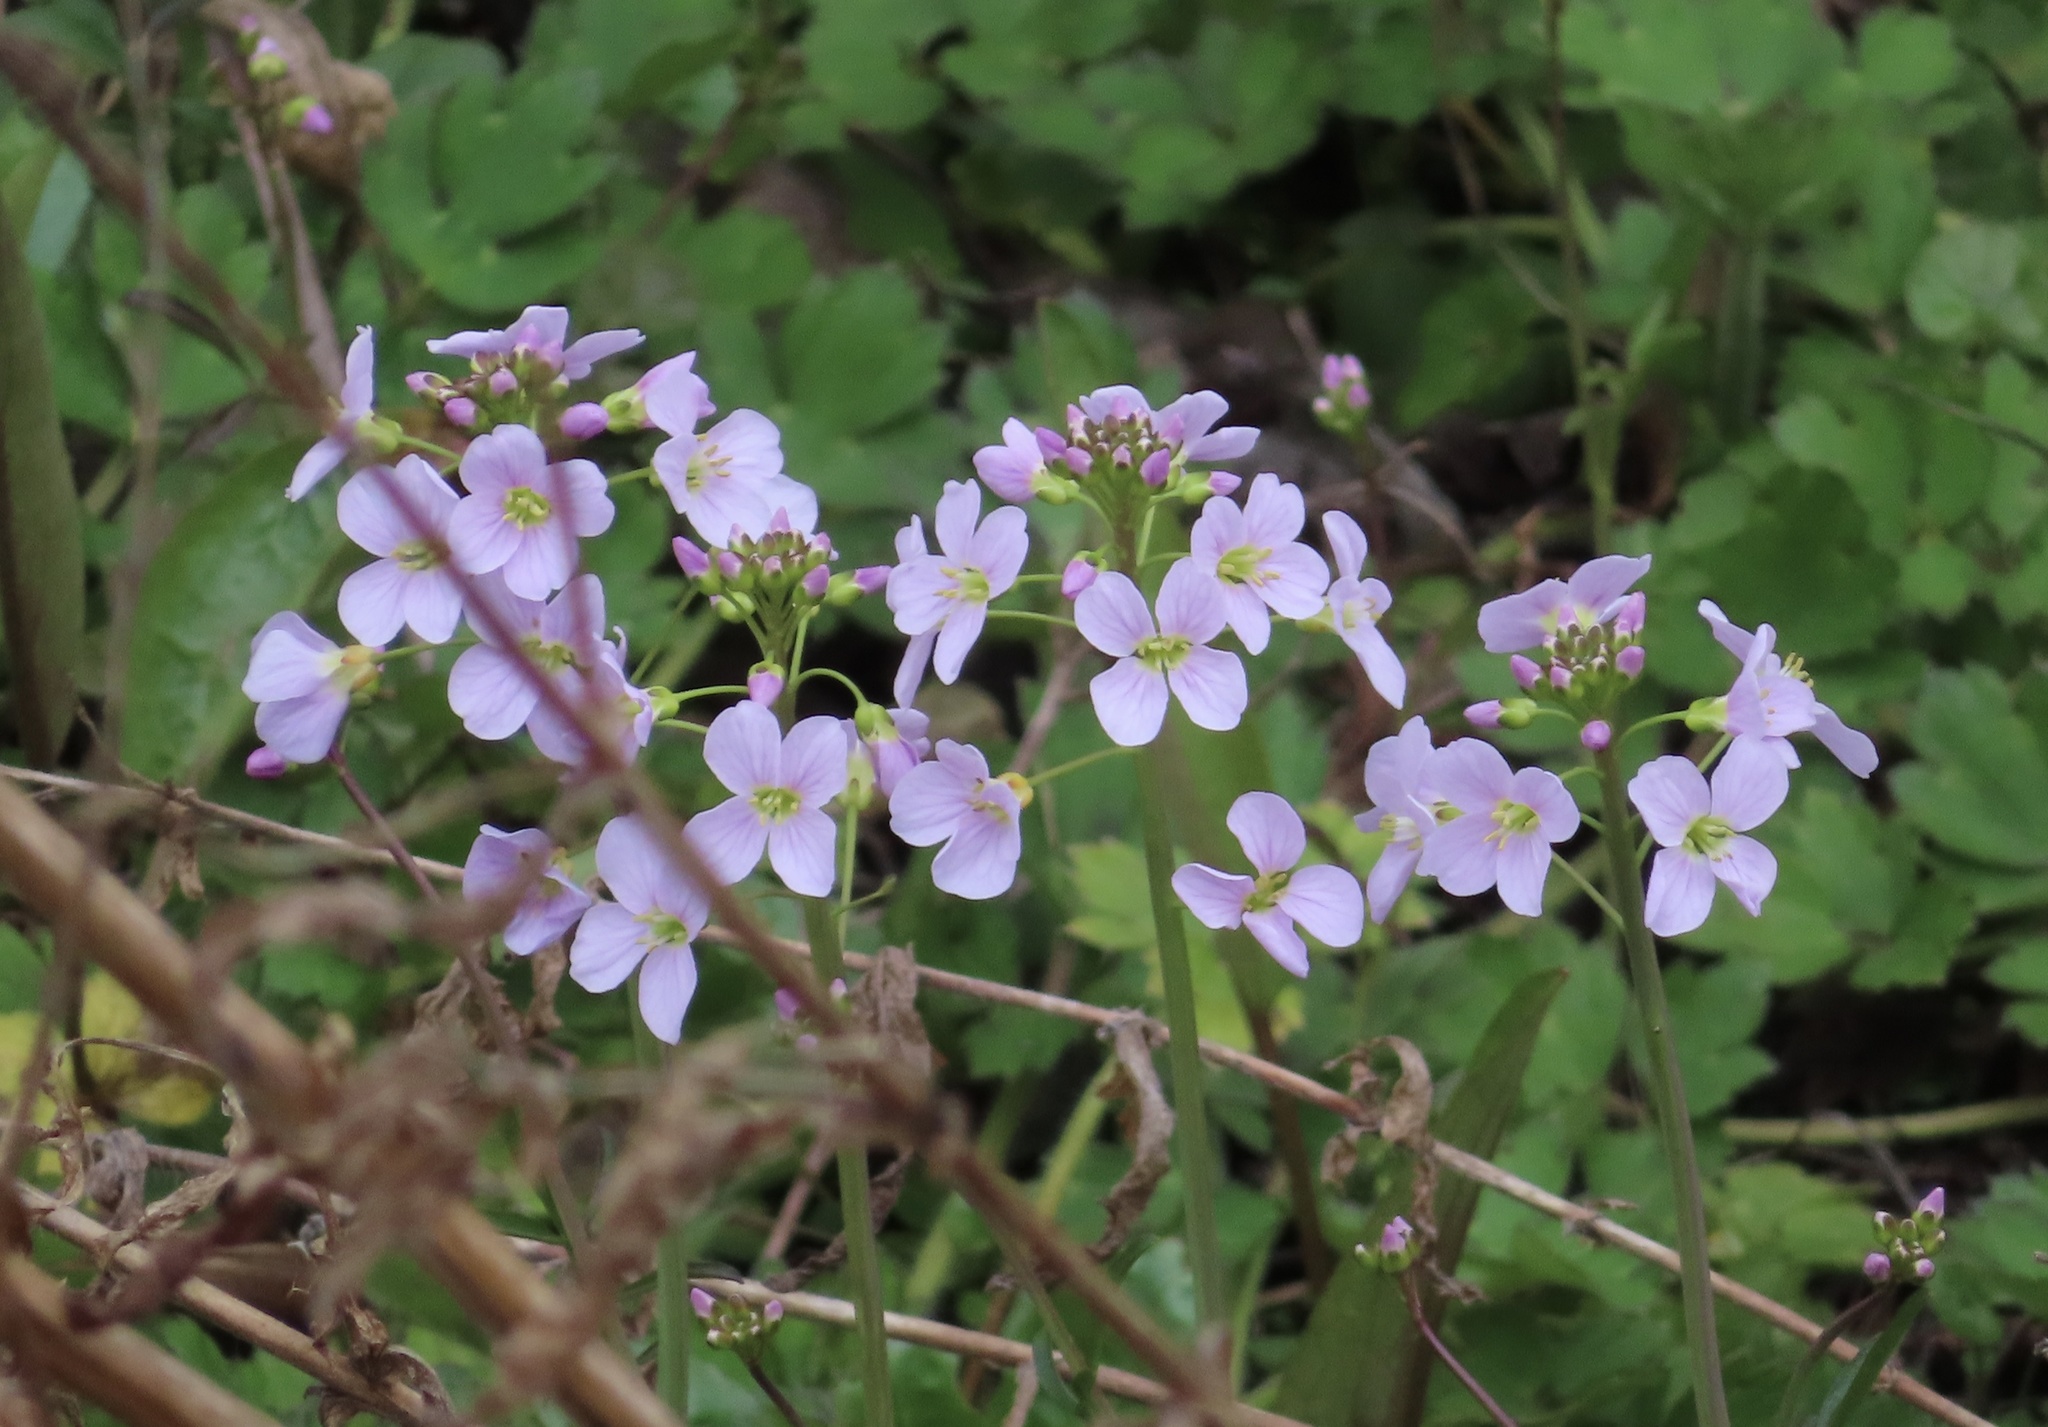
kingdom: Plantae
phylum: Tracheophyta
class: Magnoliopsida
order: Brassicales
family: Brassicaceae
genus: Cardamine
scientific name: Cardamine pratensis
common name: Cuckoo flower
